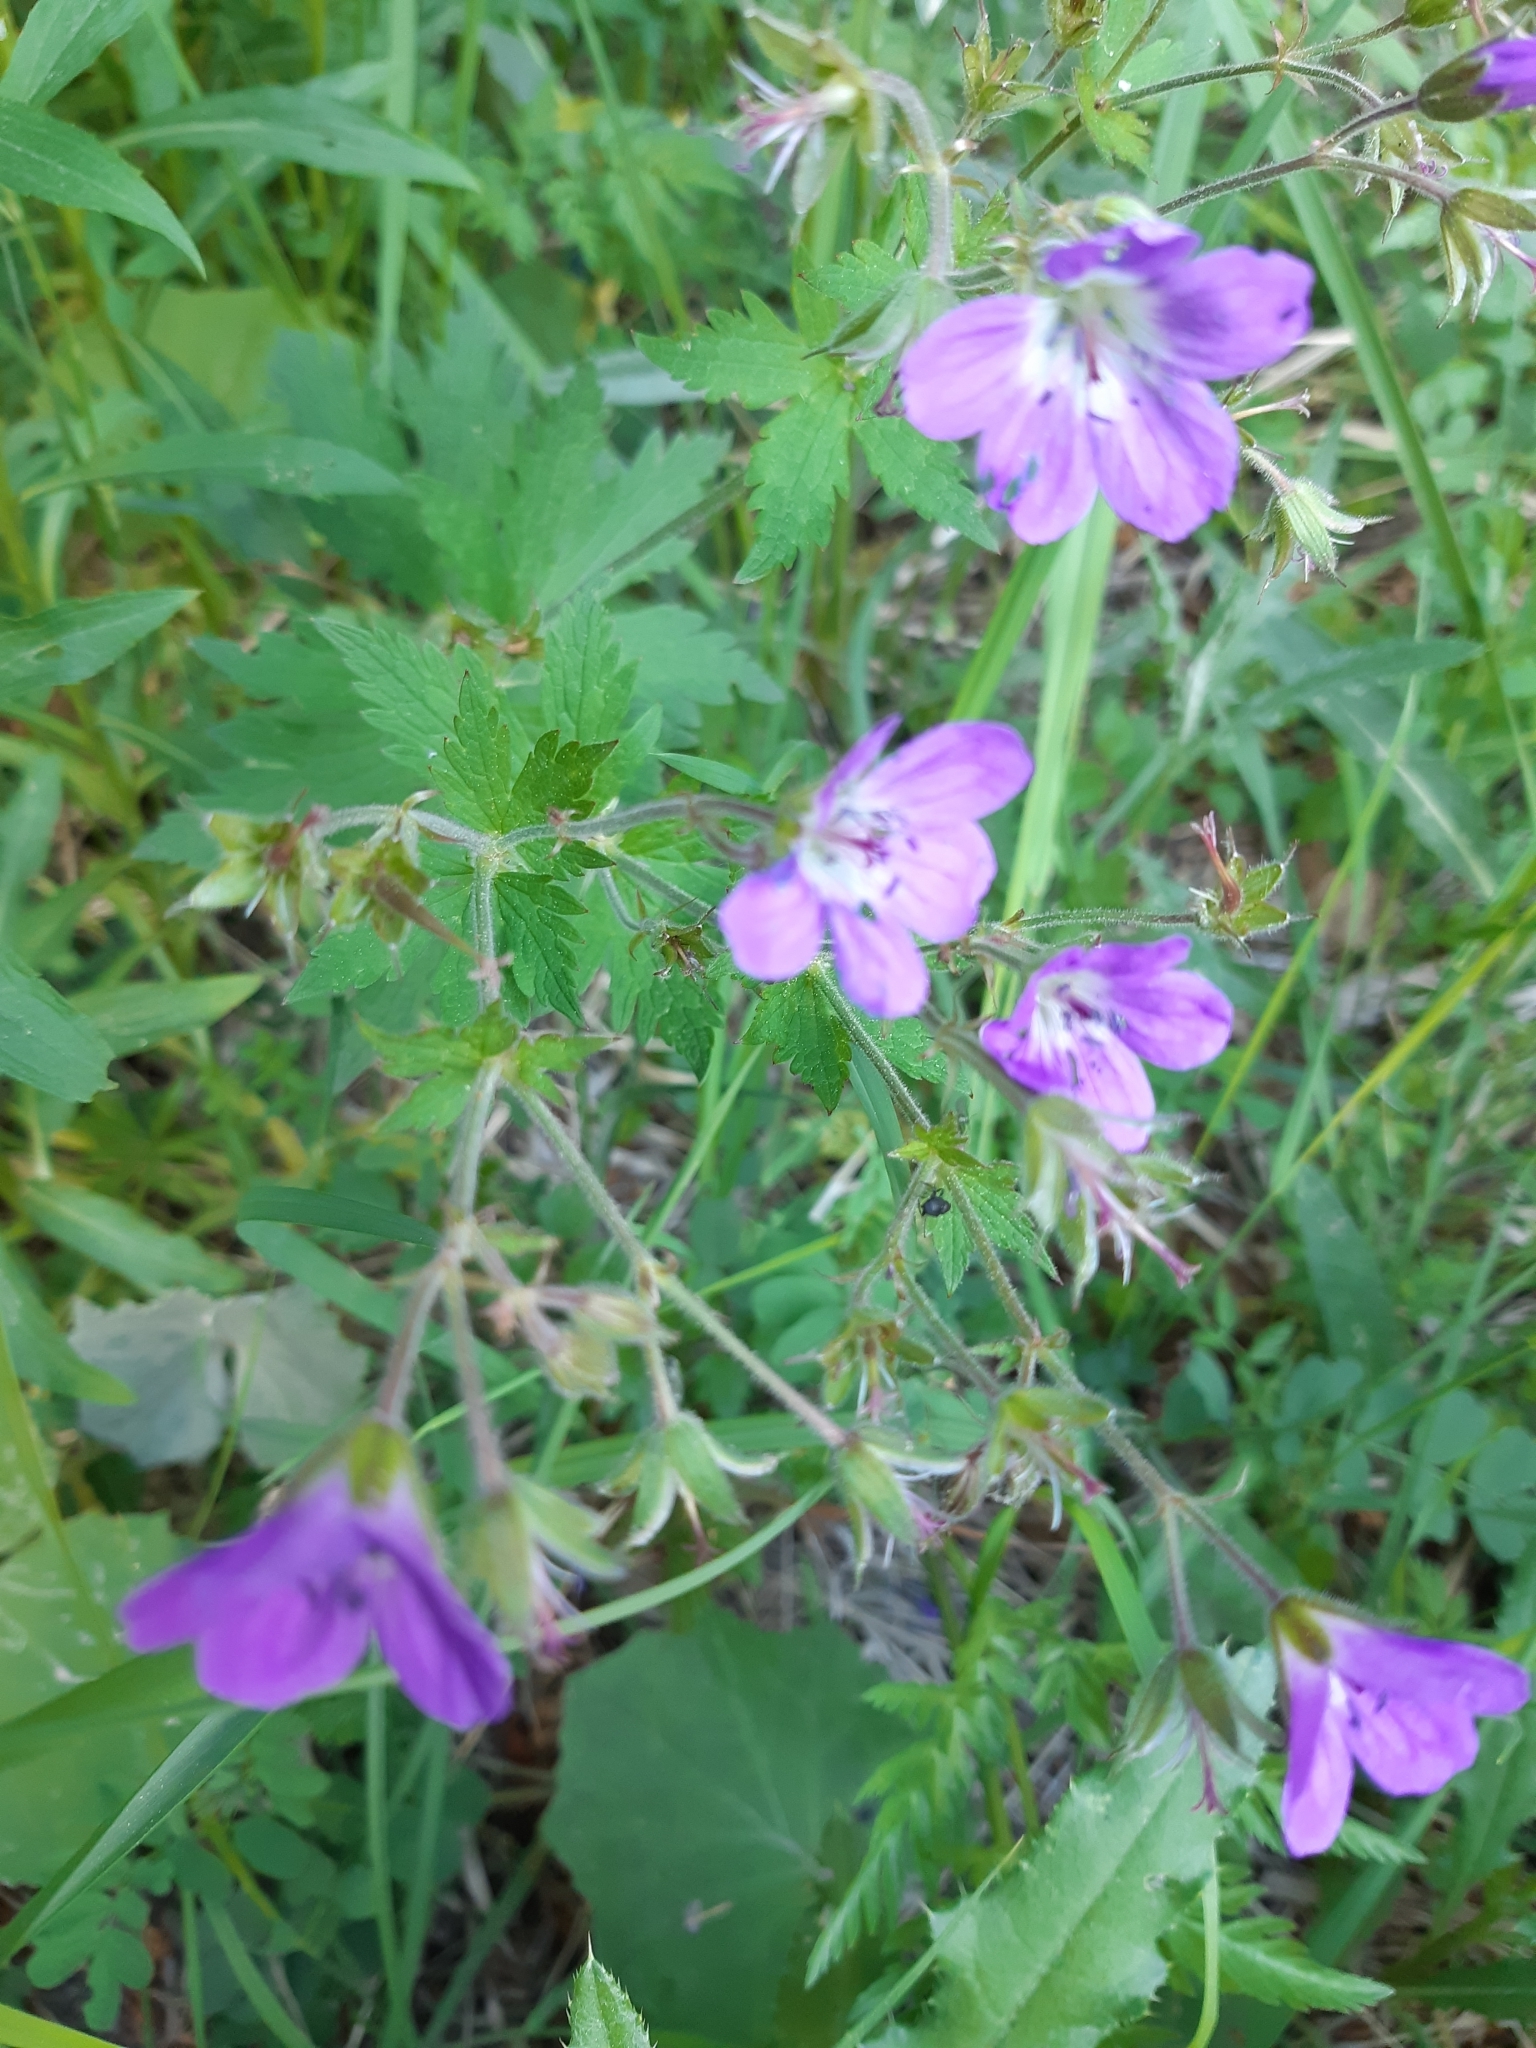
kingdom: Plantae
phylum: Tracheophyta
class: Magnoliopsida
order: Geraniales
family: Geraniaceae
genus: Geranium
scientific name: Geranium sylvaticum
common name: Wood crane's-bill
